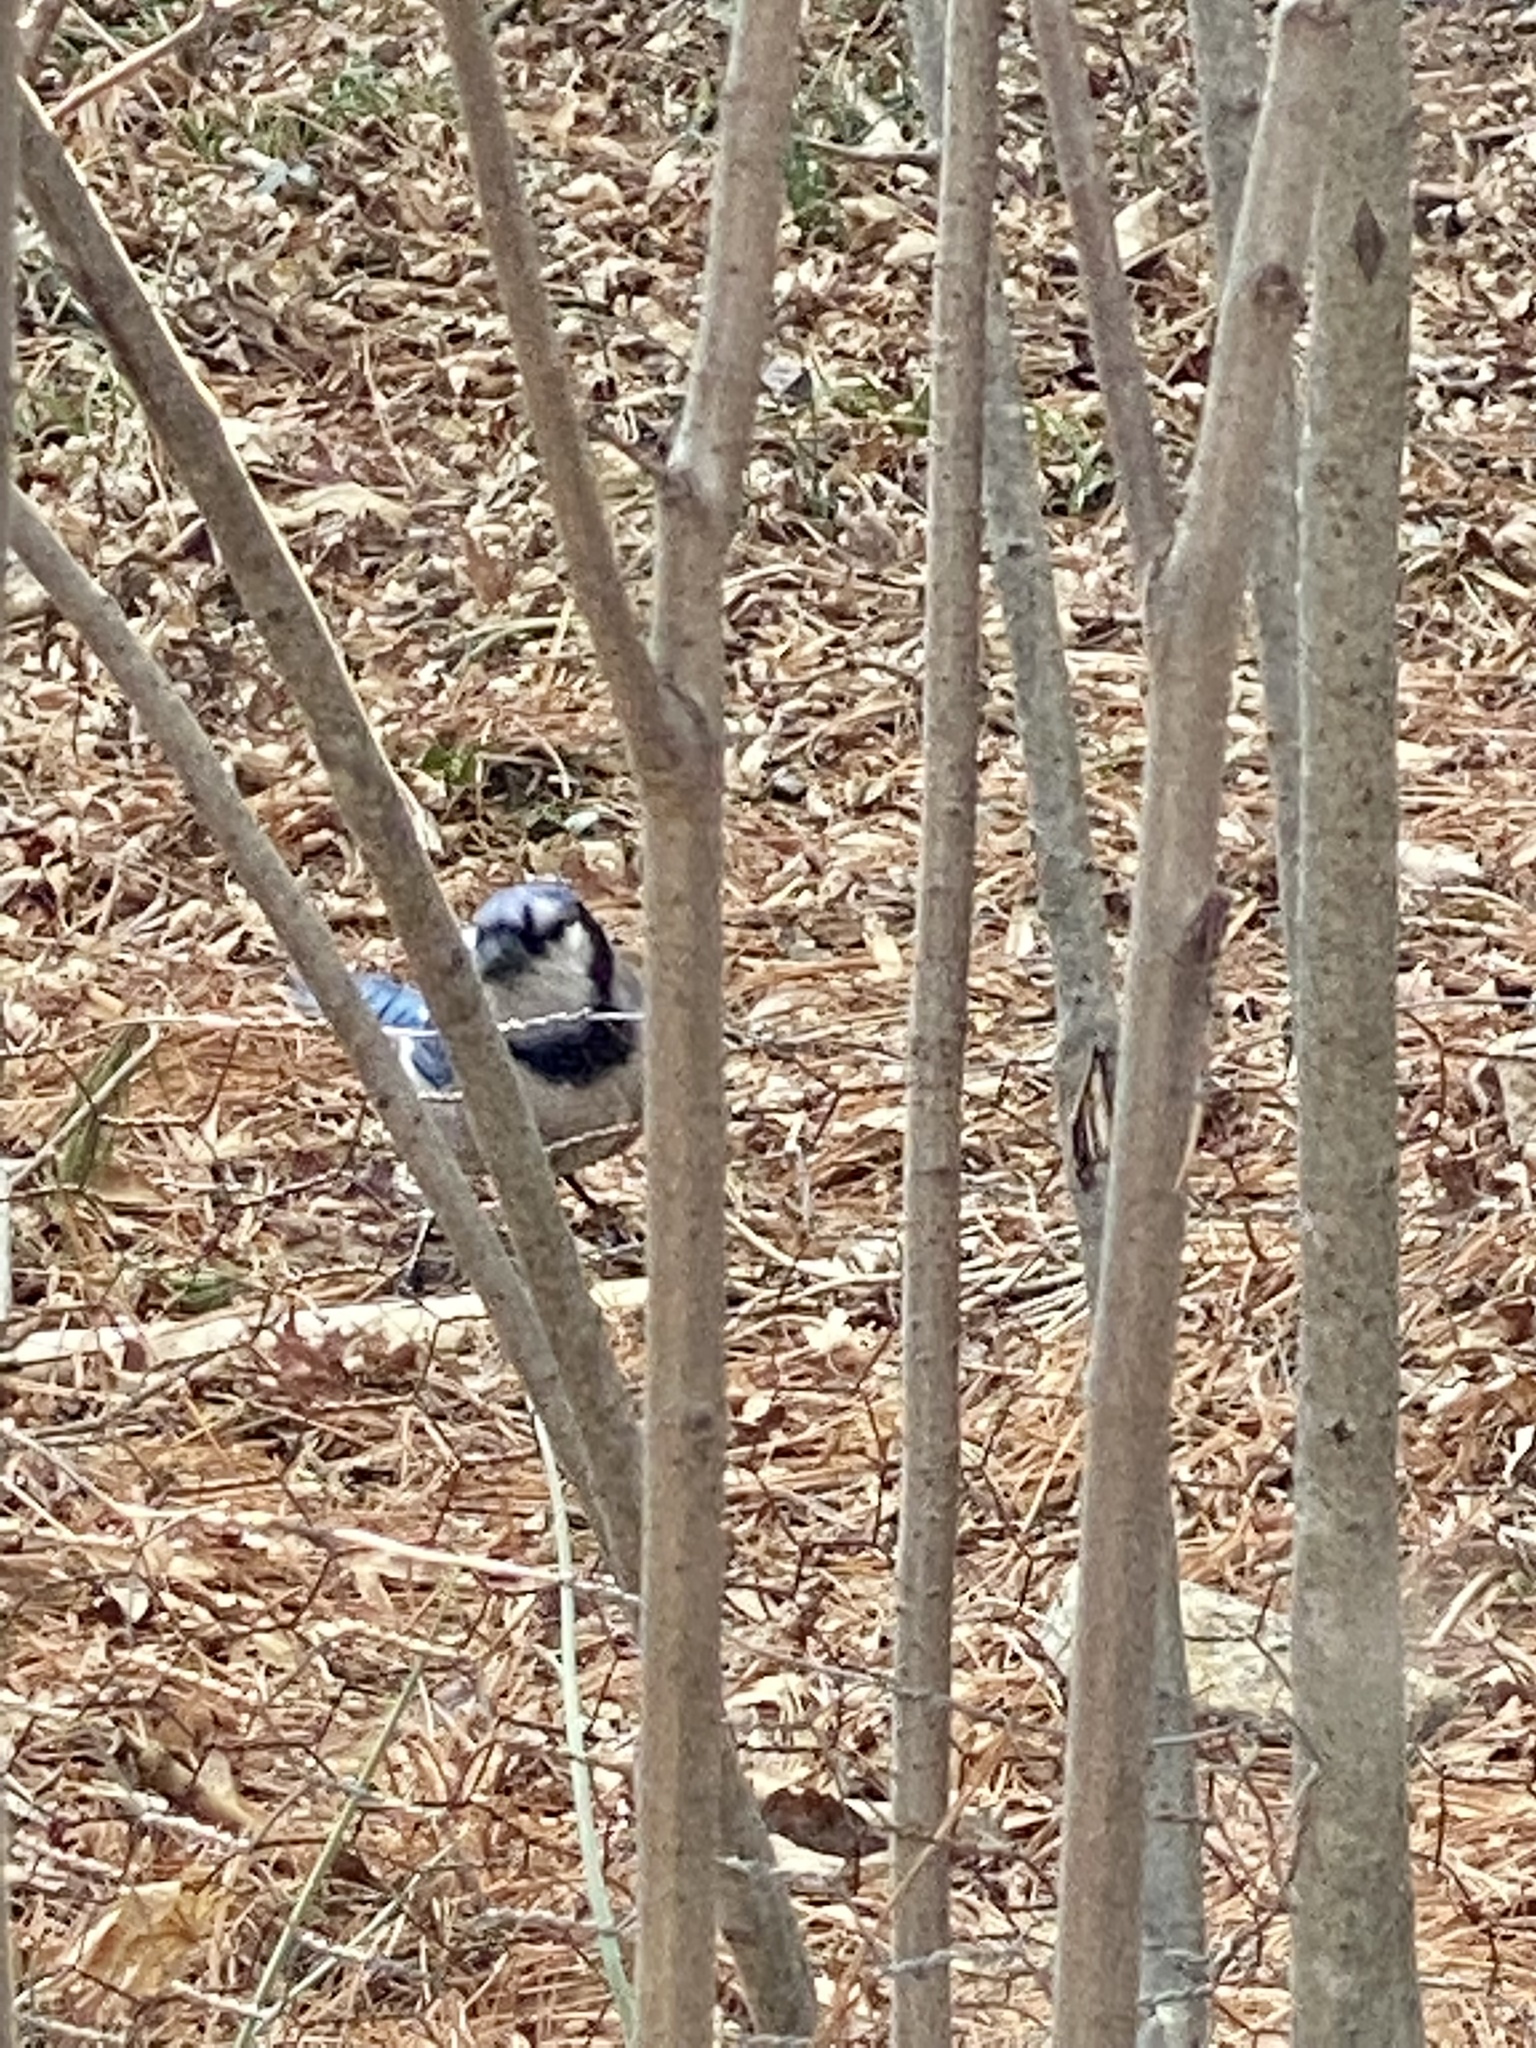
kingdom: Animalia
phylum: Chordata
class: Aves
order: Passeriformes
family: Corvidae
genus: Cyanocitta
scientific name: Cyanocitta cristata
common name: Blue jay
